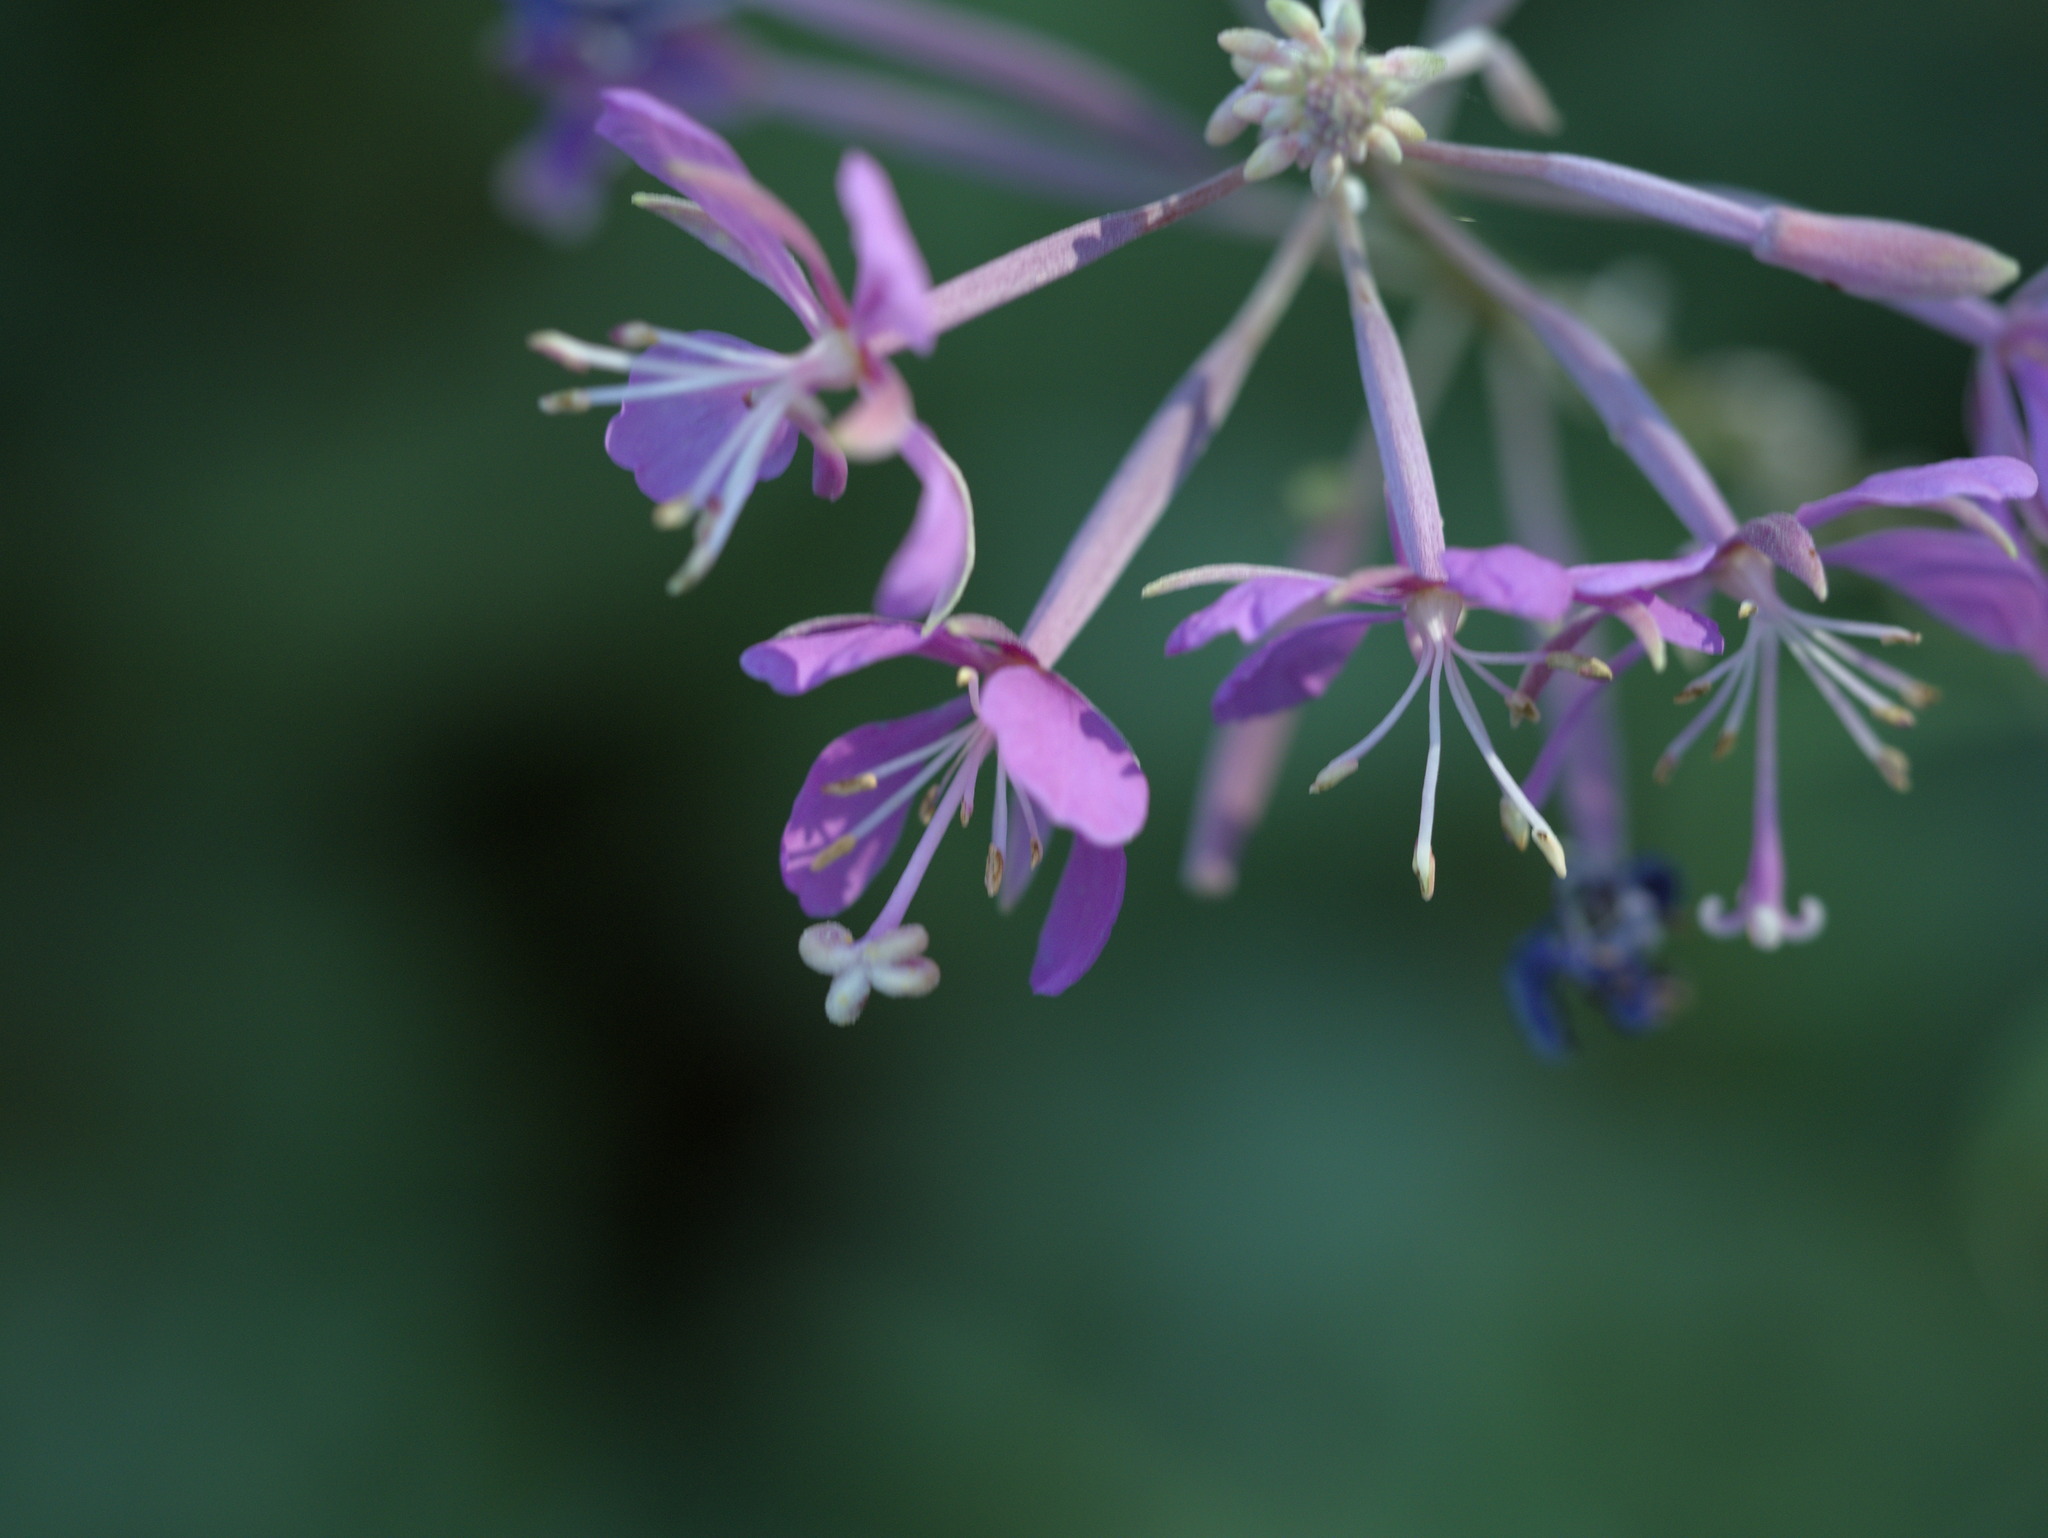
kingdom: Plantae
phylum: Tracheophyta
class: Magnoliopsida
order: Myrtales
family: Onagraceae
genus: Chamaenerion
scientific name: Chamaenerion angustifolium
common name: Fireweed
